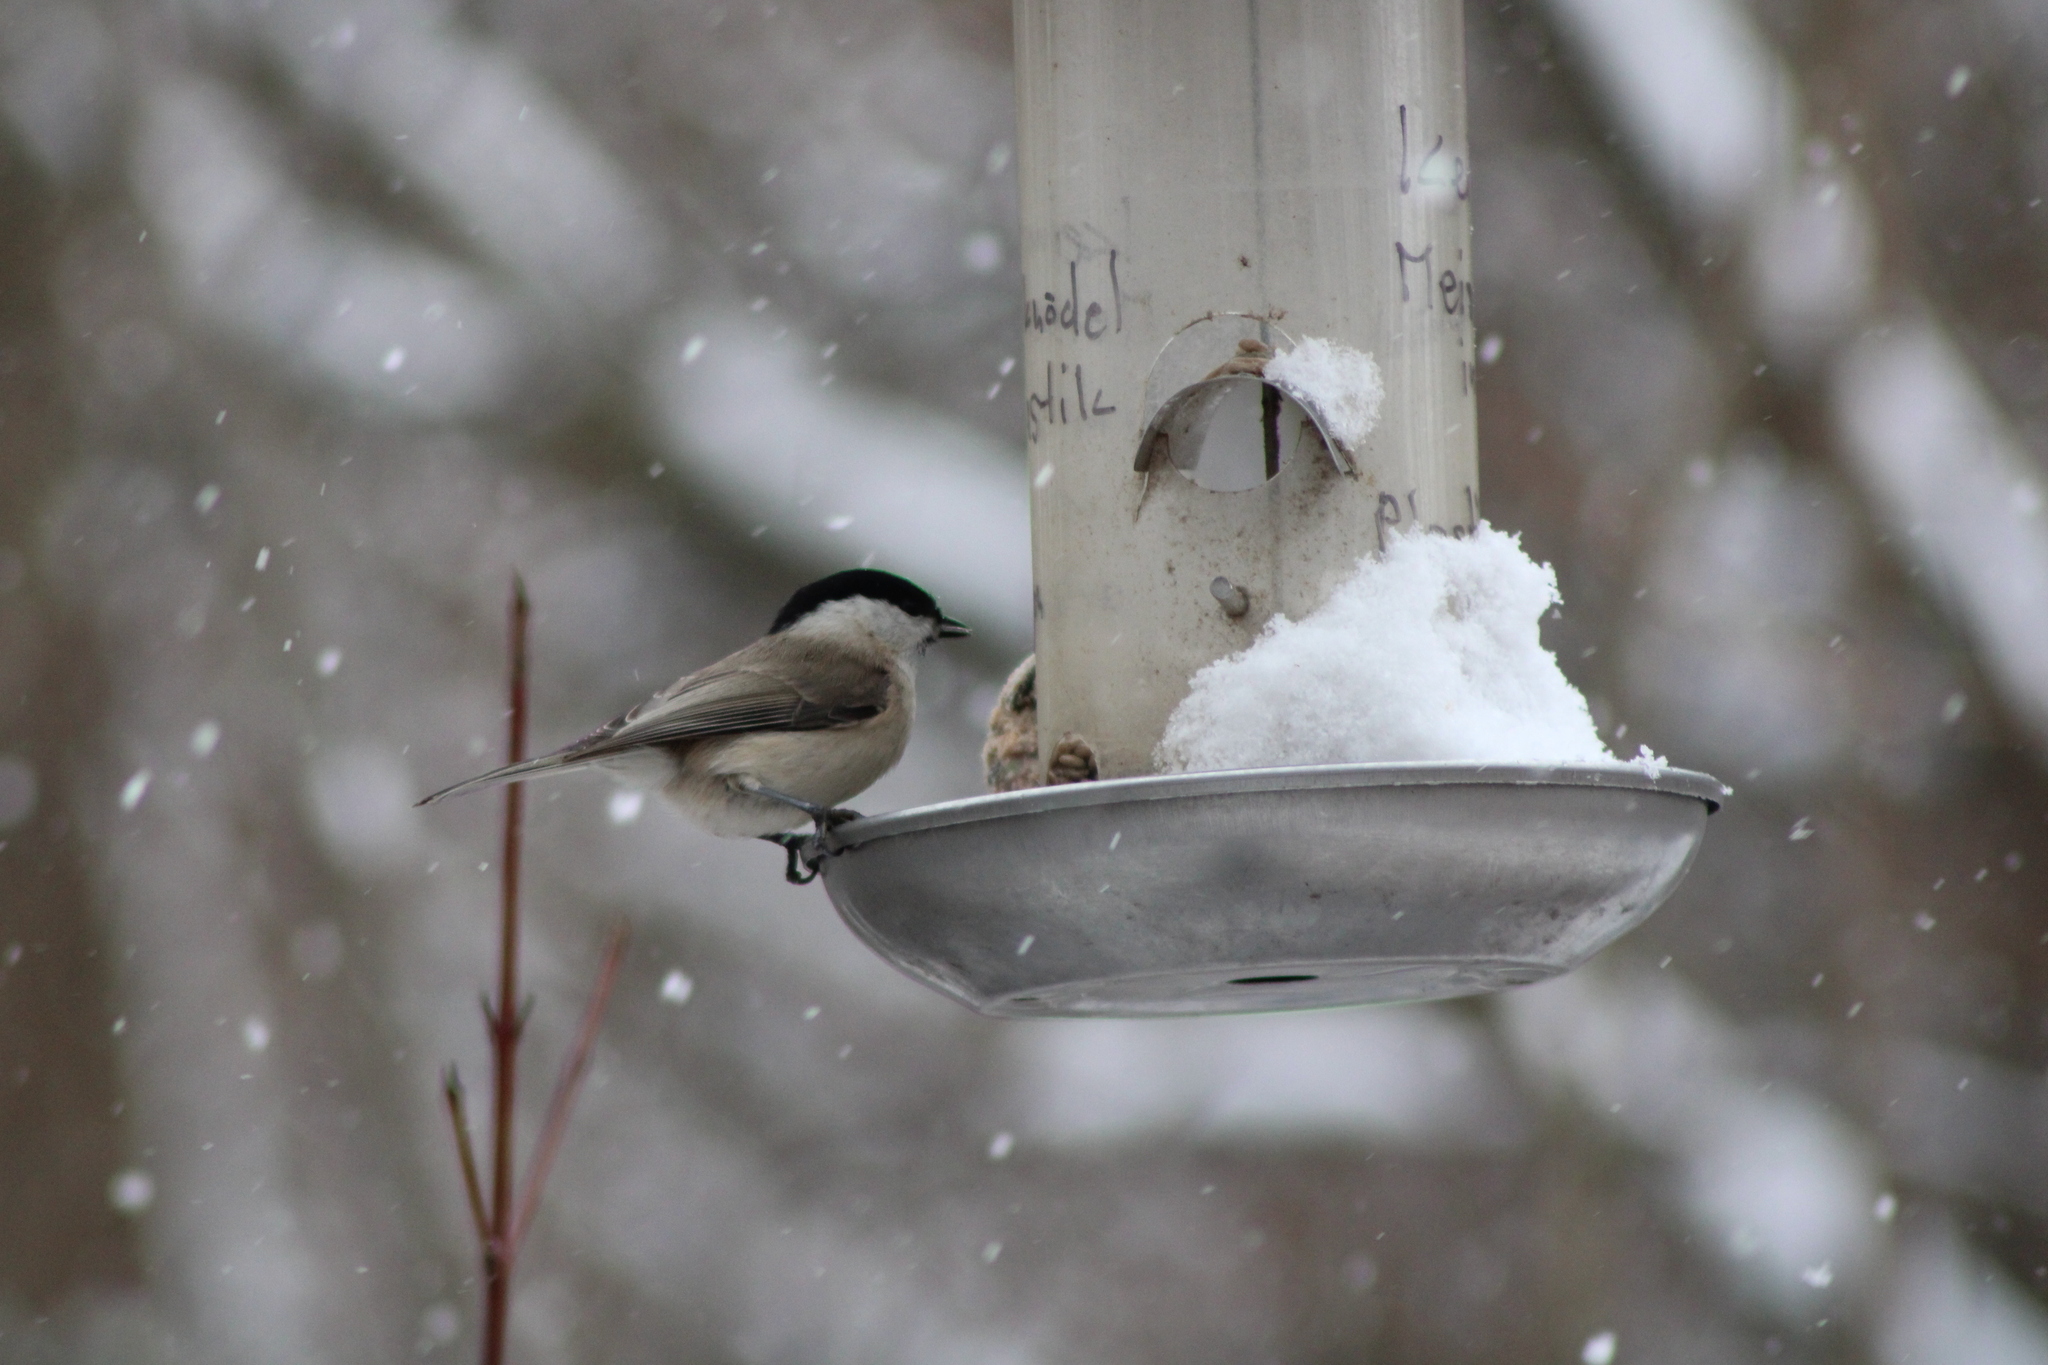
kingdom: Animalia
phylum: Chordata
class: Aves
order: Passeriformes
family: Paridae
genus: Poecile
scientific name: Poecile palustris
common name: Marsh tit
